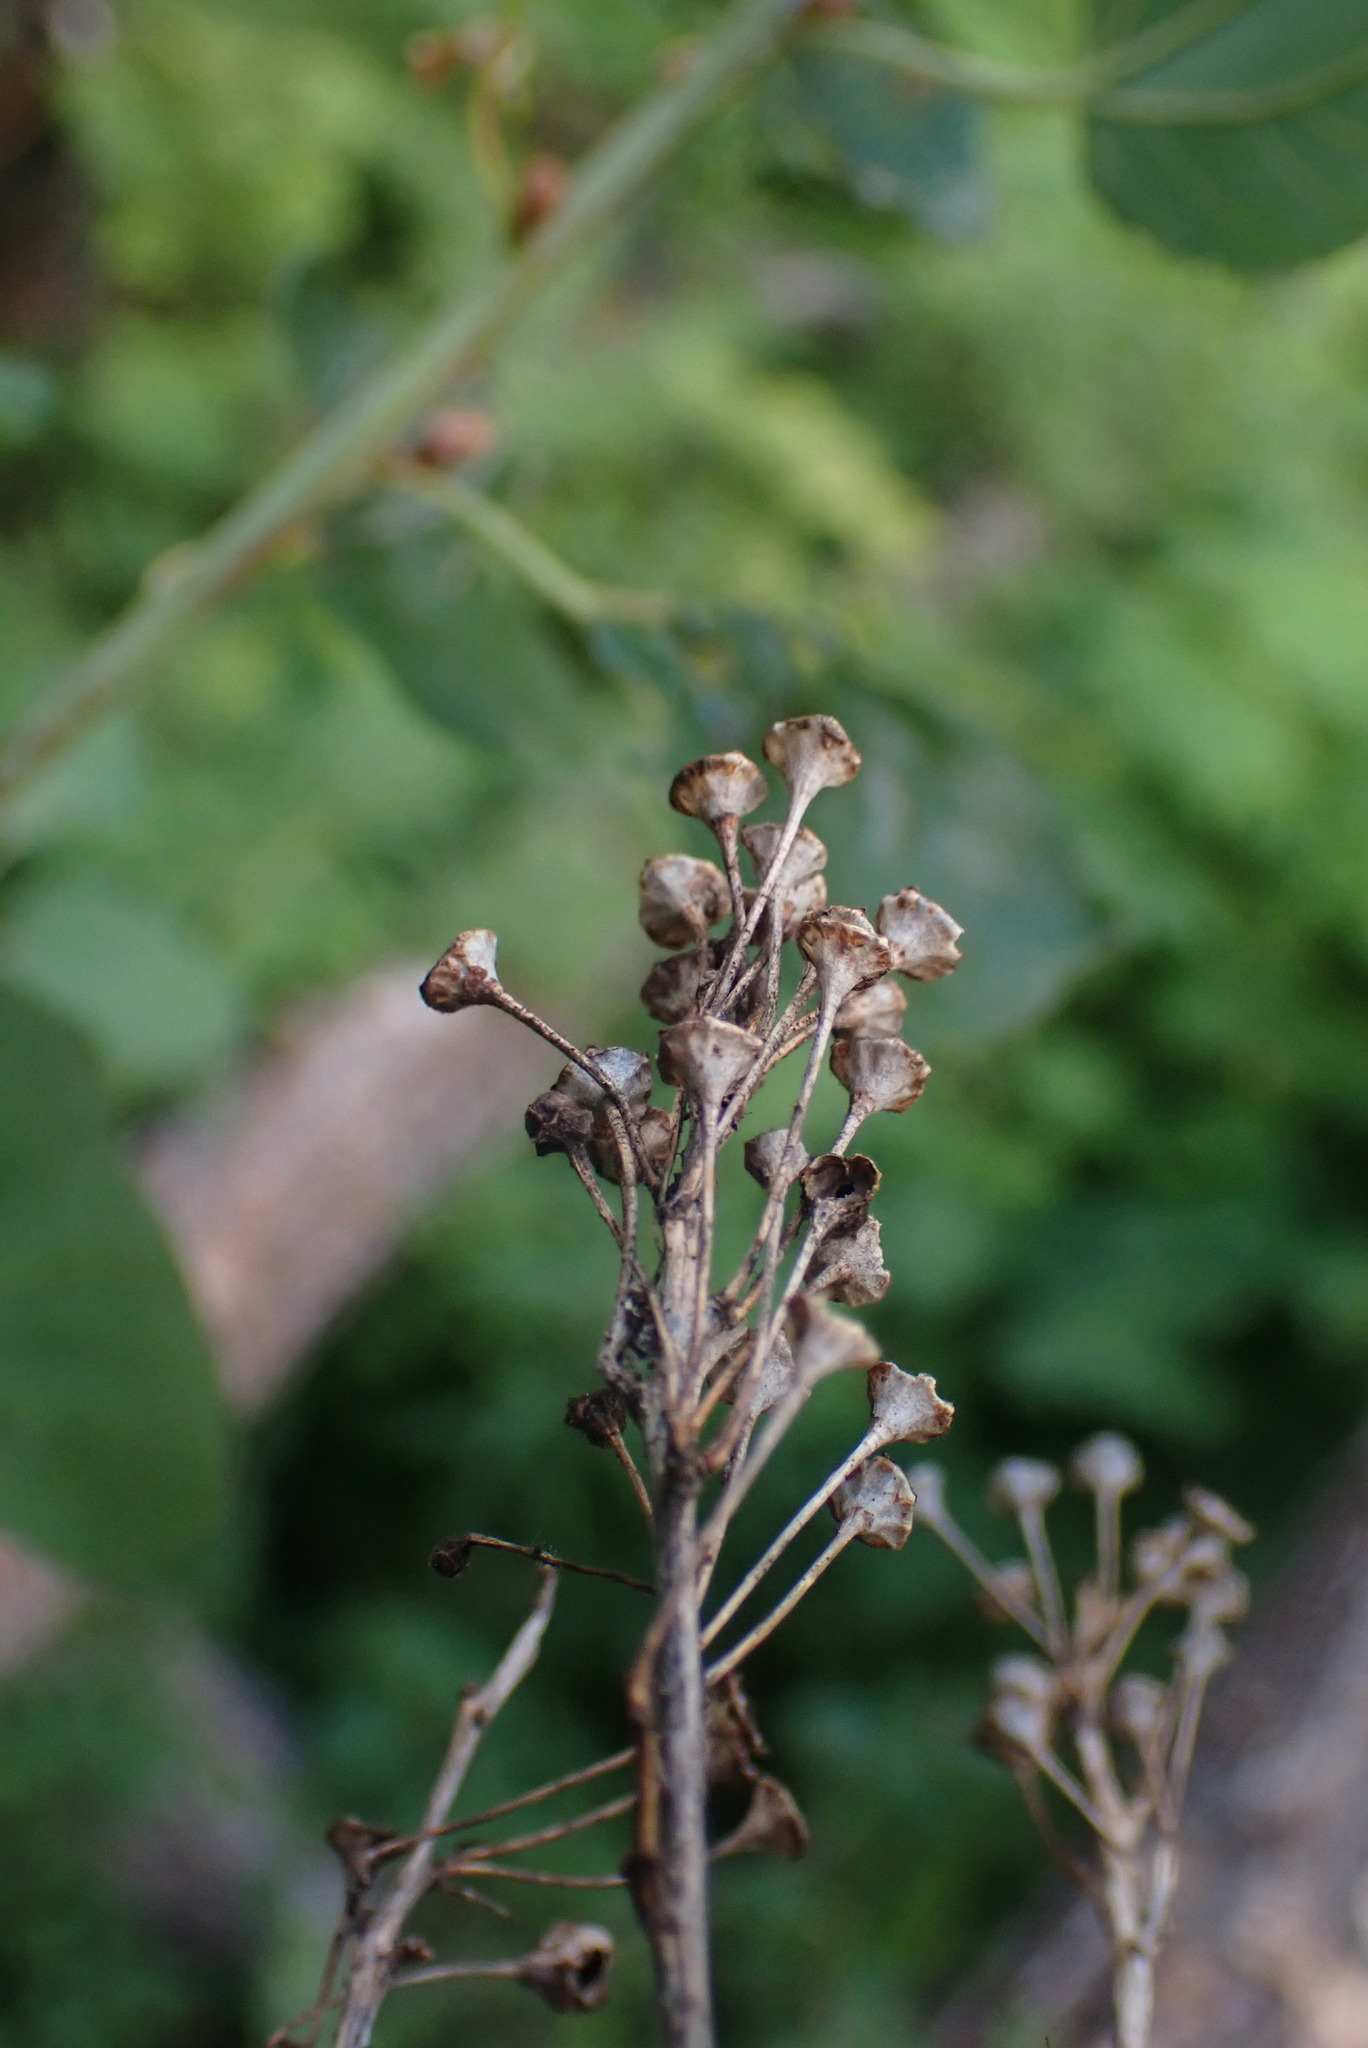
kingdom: Plantae
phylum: Tracheophyta
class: Magnoliopsida
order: Rosales
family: Rhamnaceae
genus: Ceanothus
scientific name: Ceanothus sanguineus
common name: Teatree
